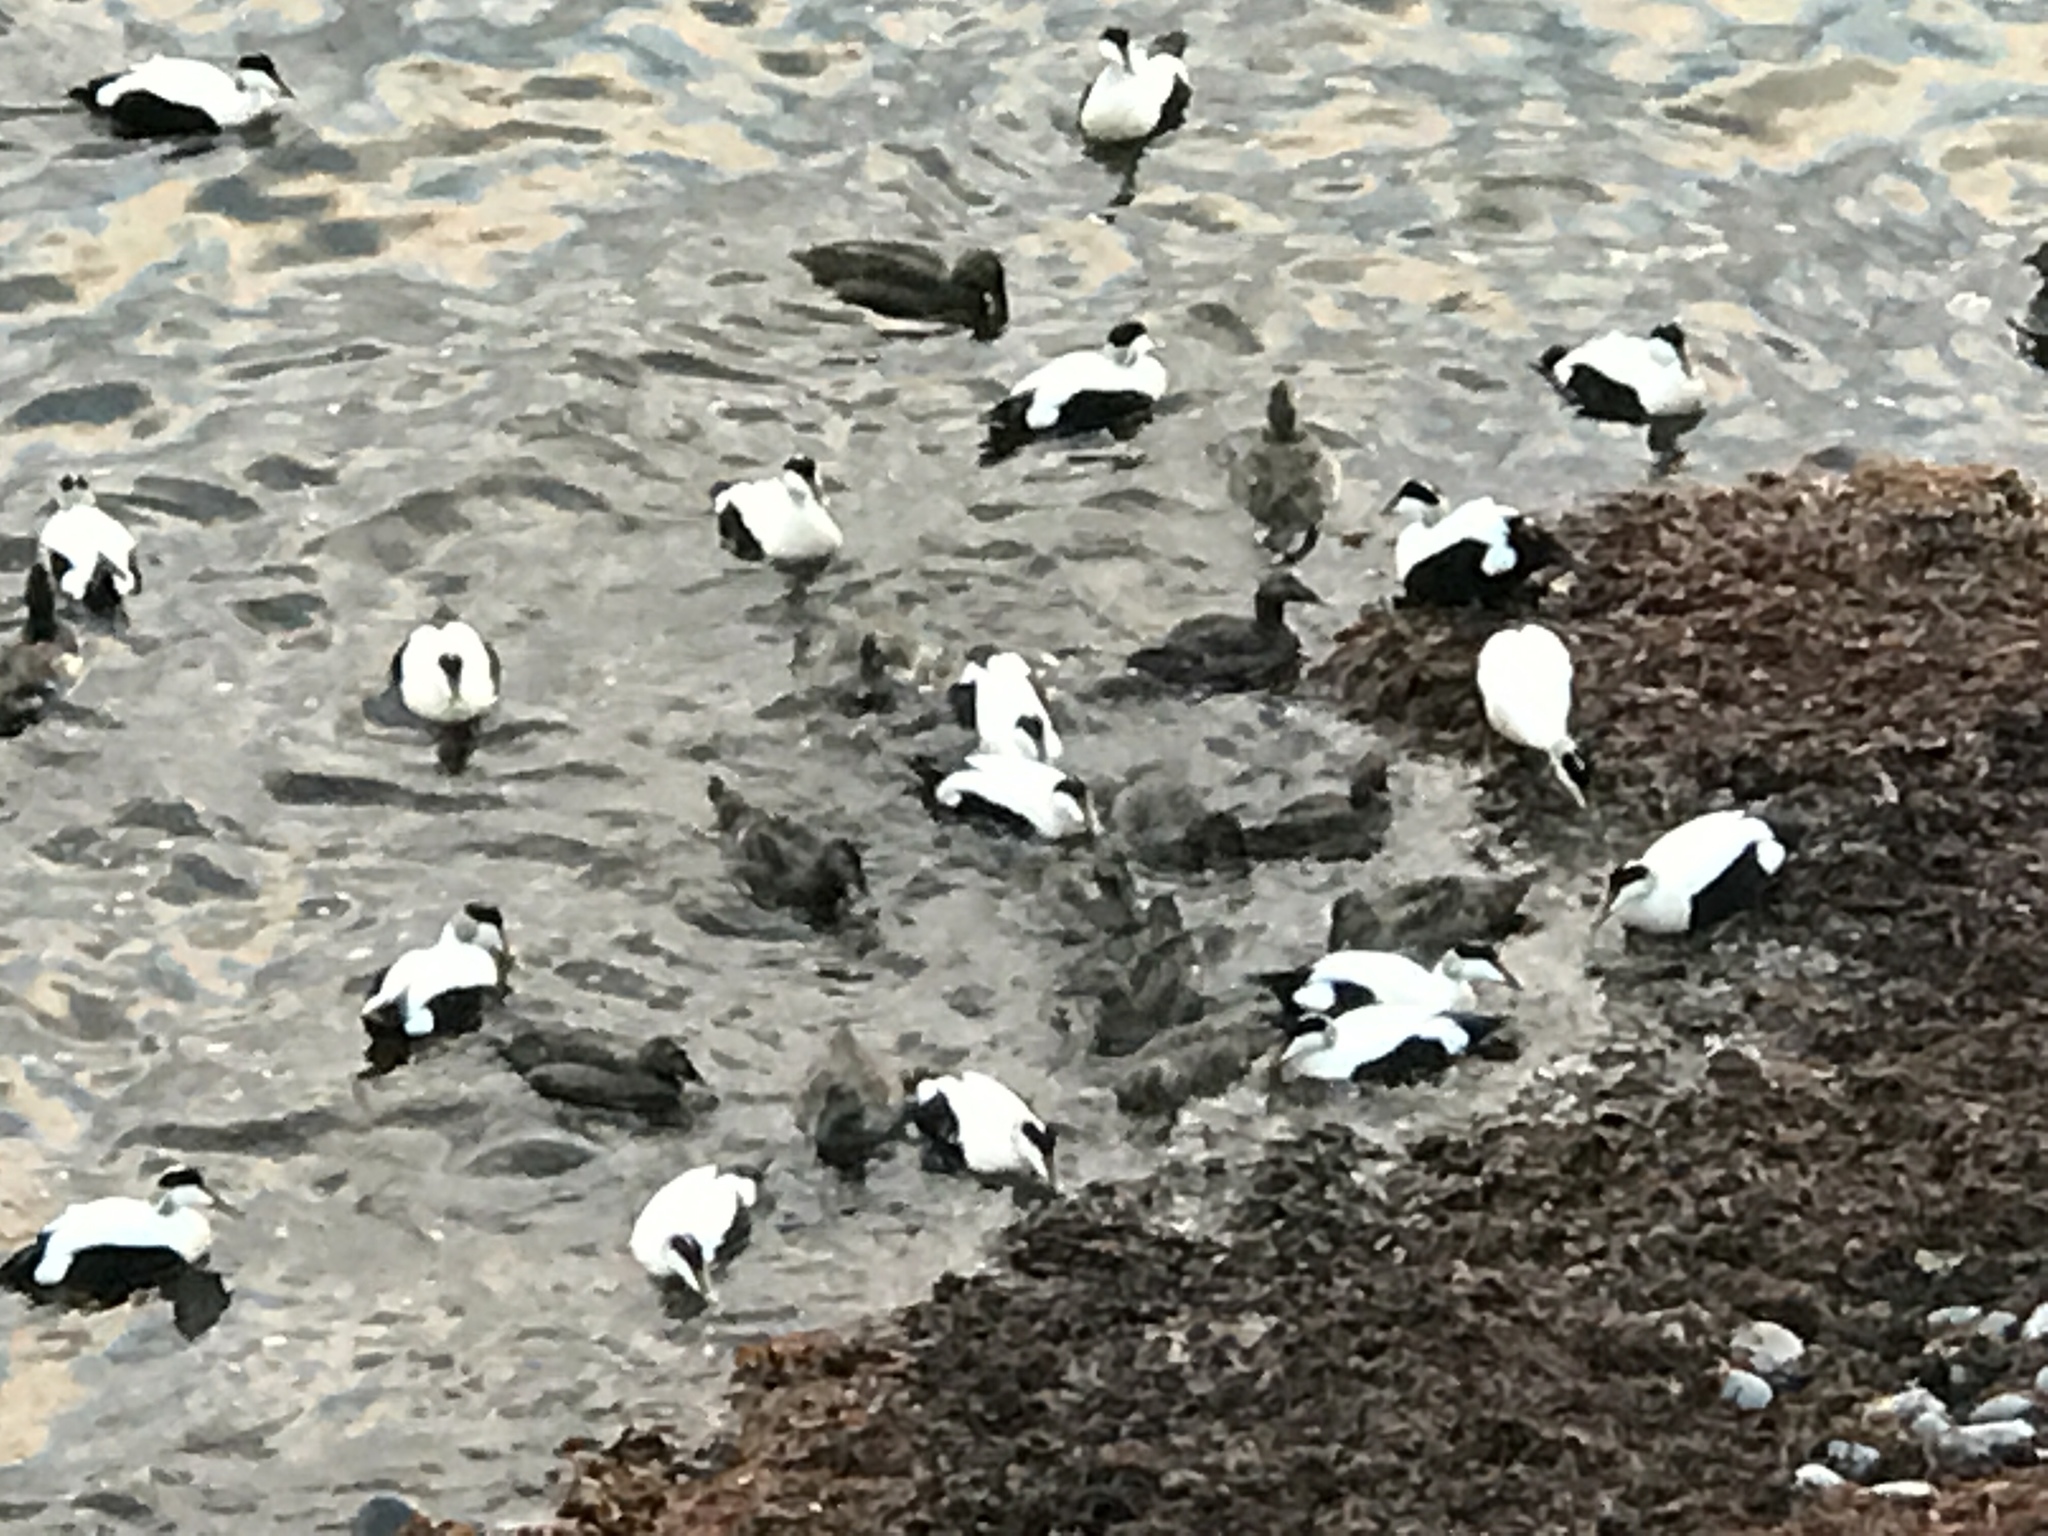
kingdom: Animalia
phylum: Chordata
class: Aves
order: Anseriformes
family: Anatidae
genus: Somateria
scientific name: Somateria mollissima
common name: Common eider
